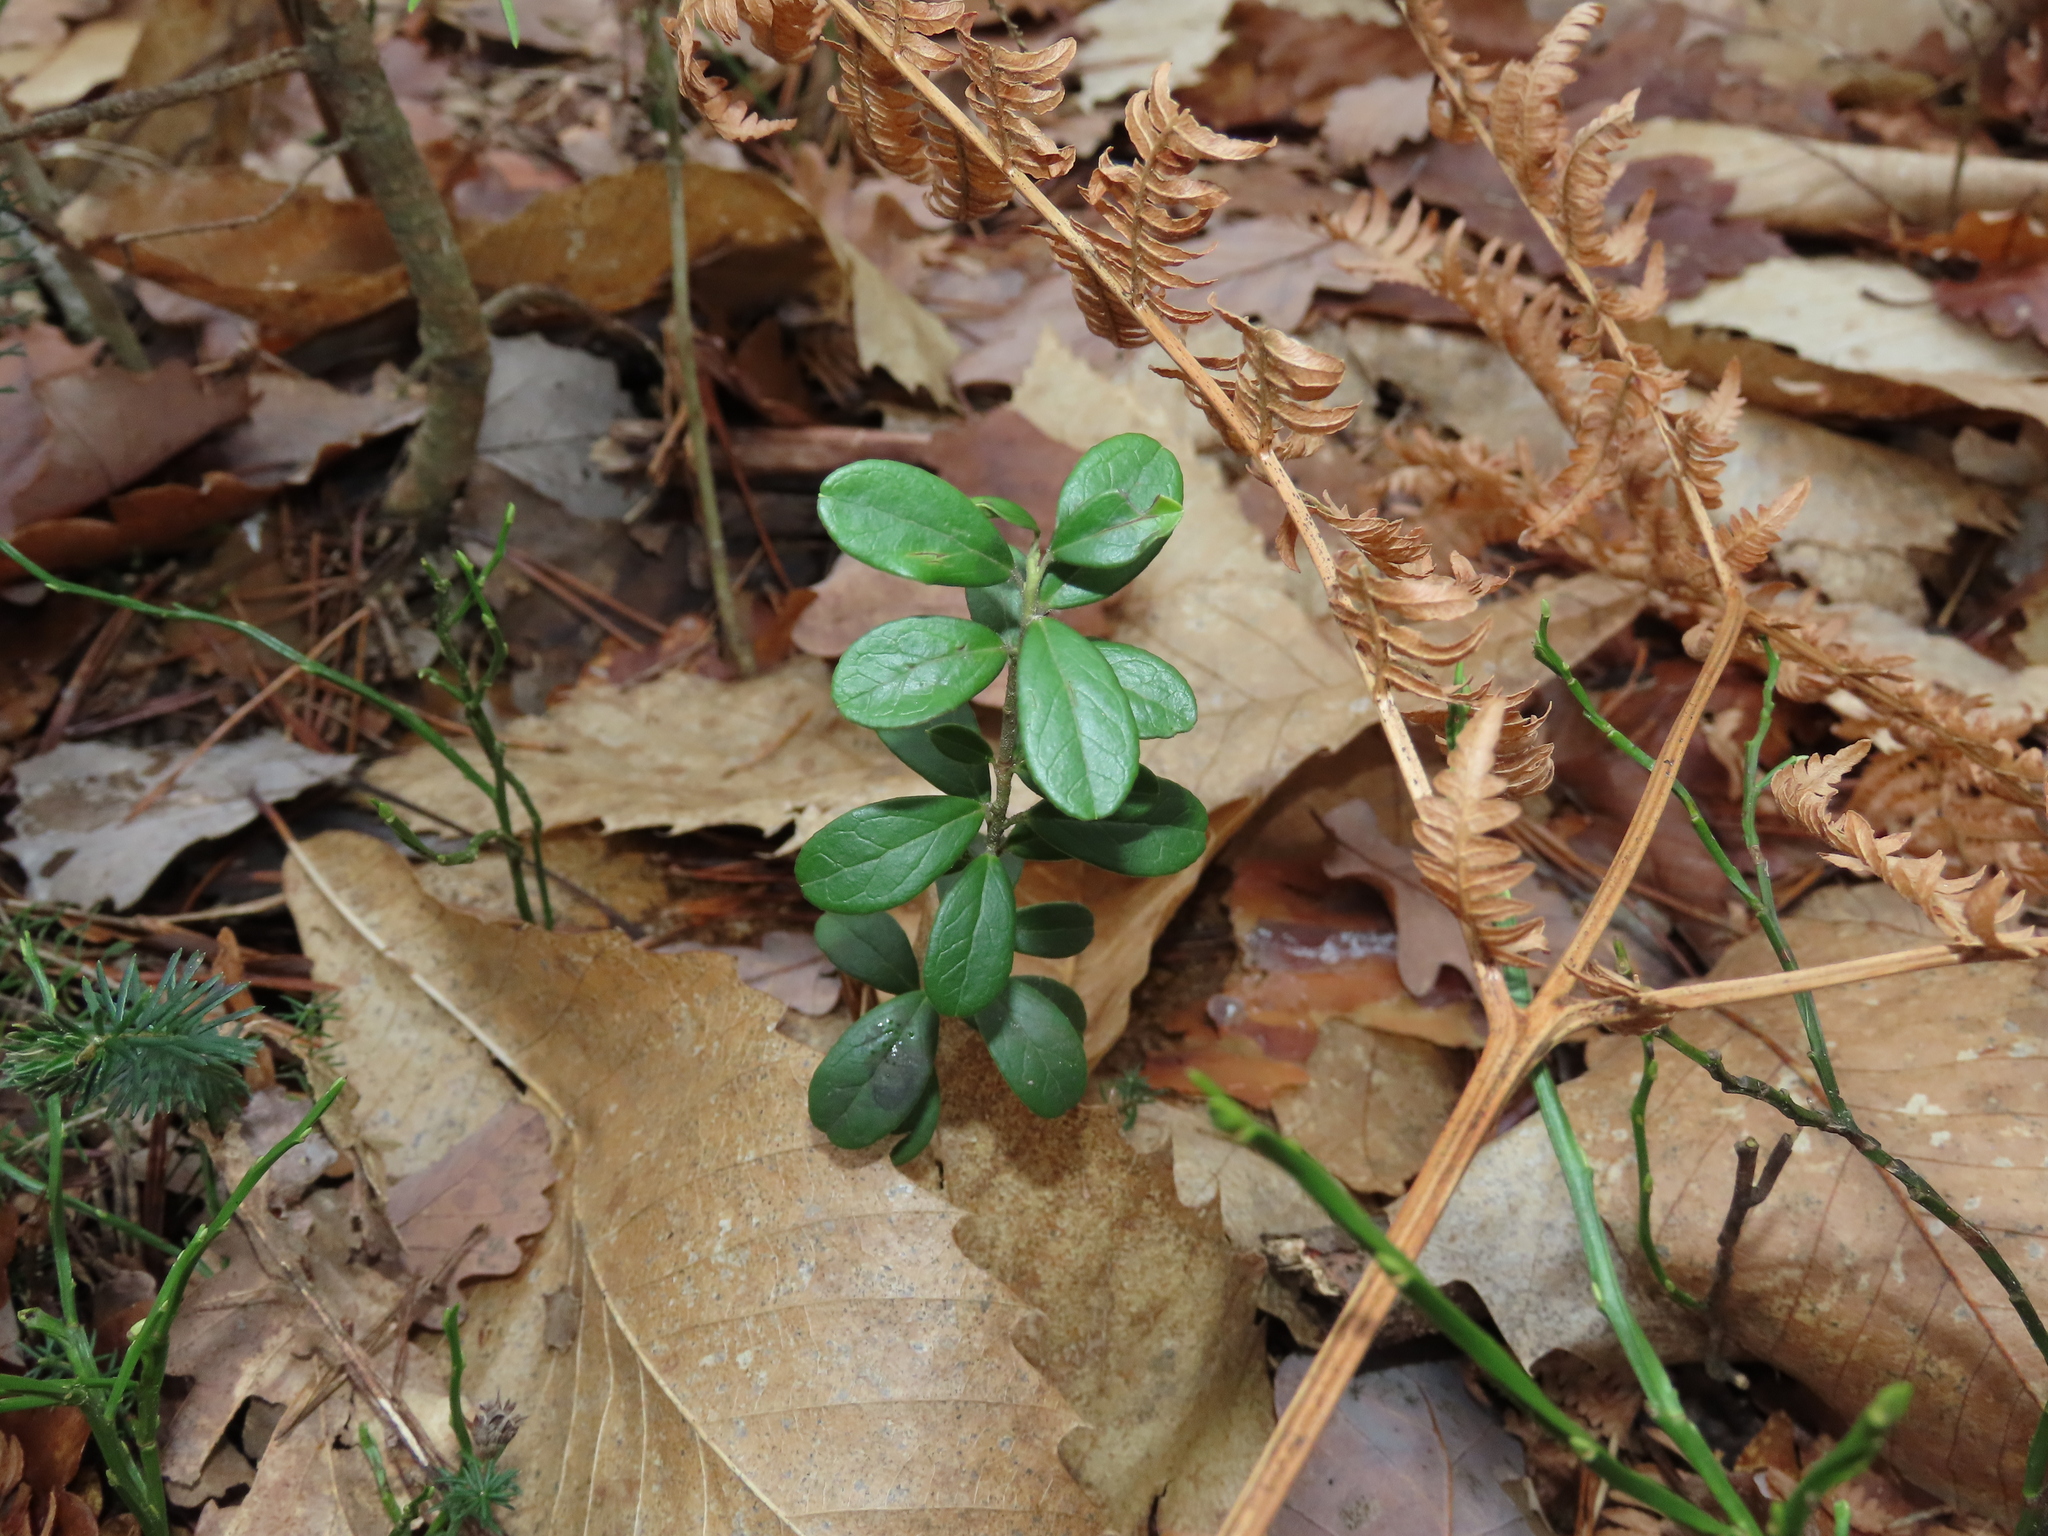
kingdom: Plantae
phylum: Tracheophyta
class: Magnoliopsida
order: Ericales
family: Ericaceae
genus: Vaccinium
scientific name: Vaccinium vitis-idaea
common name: Cowberry
